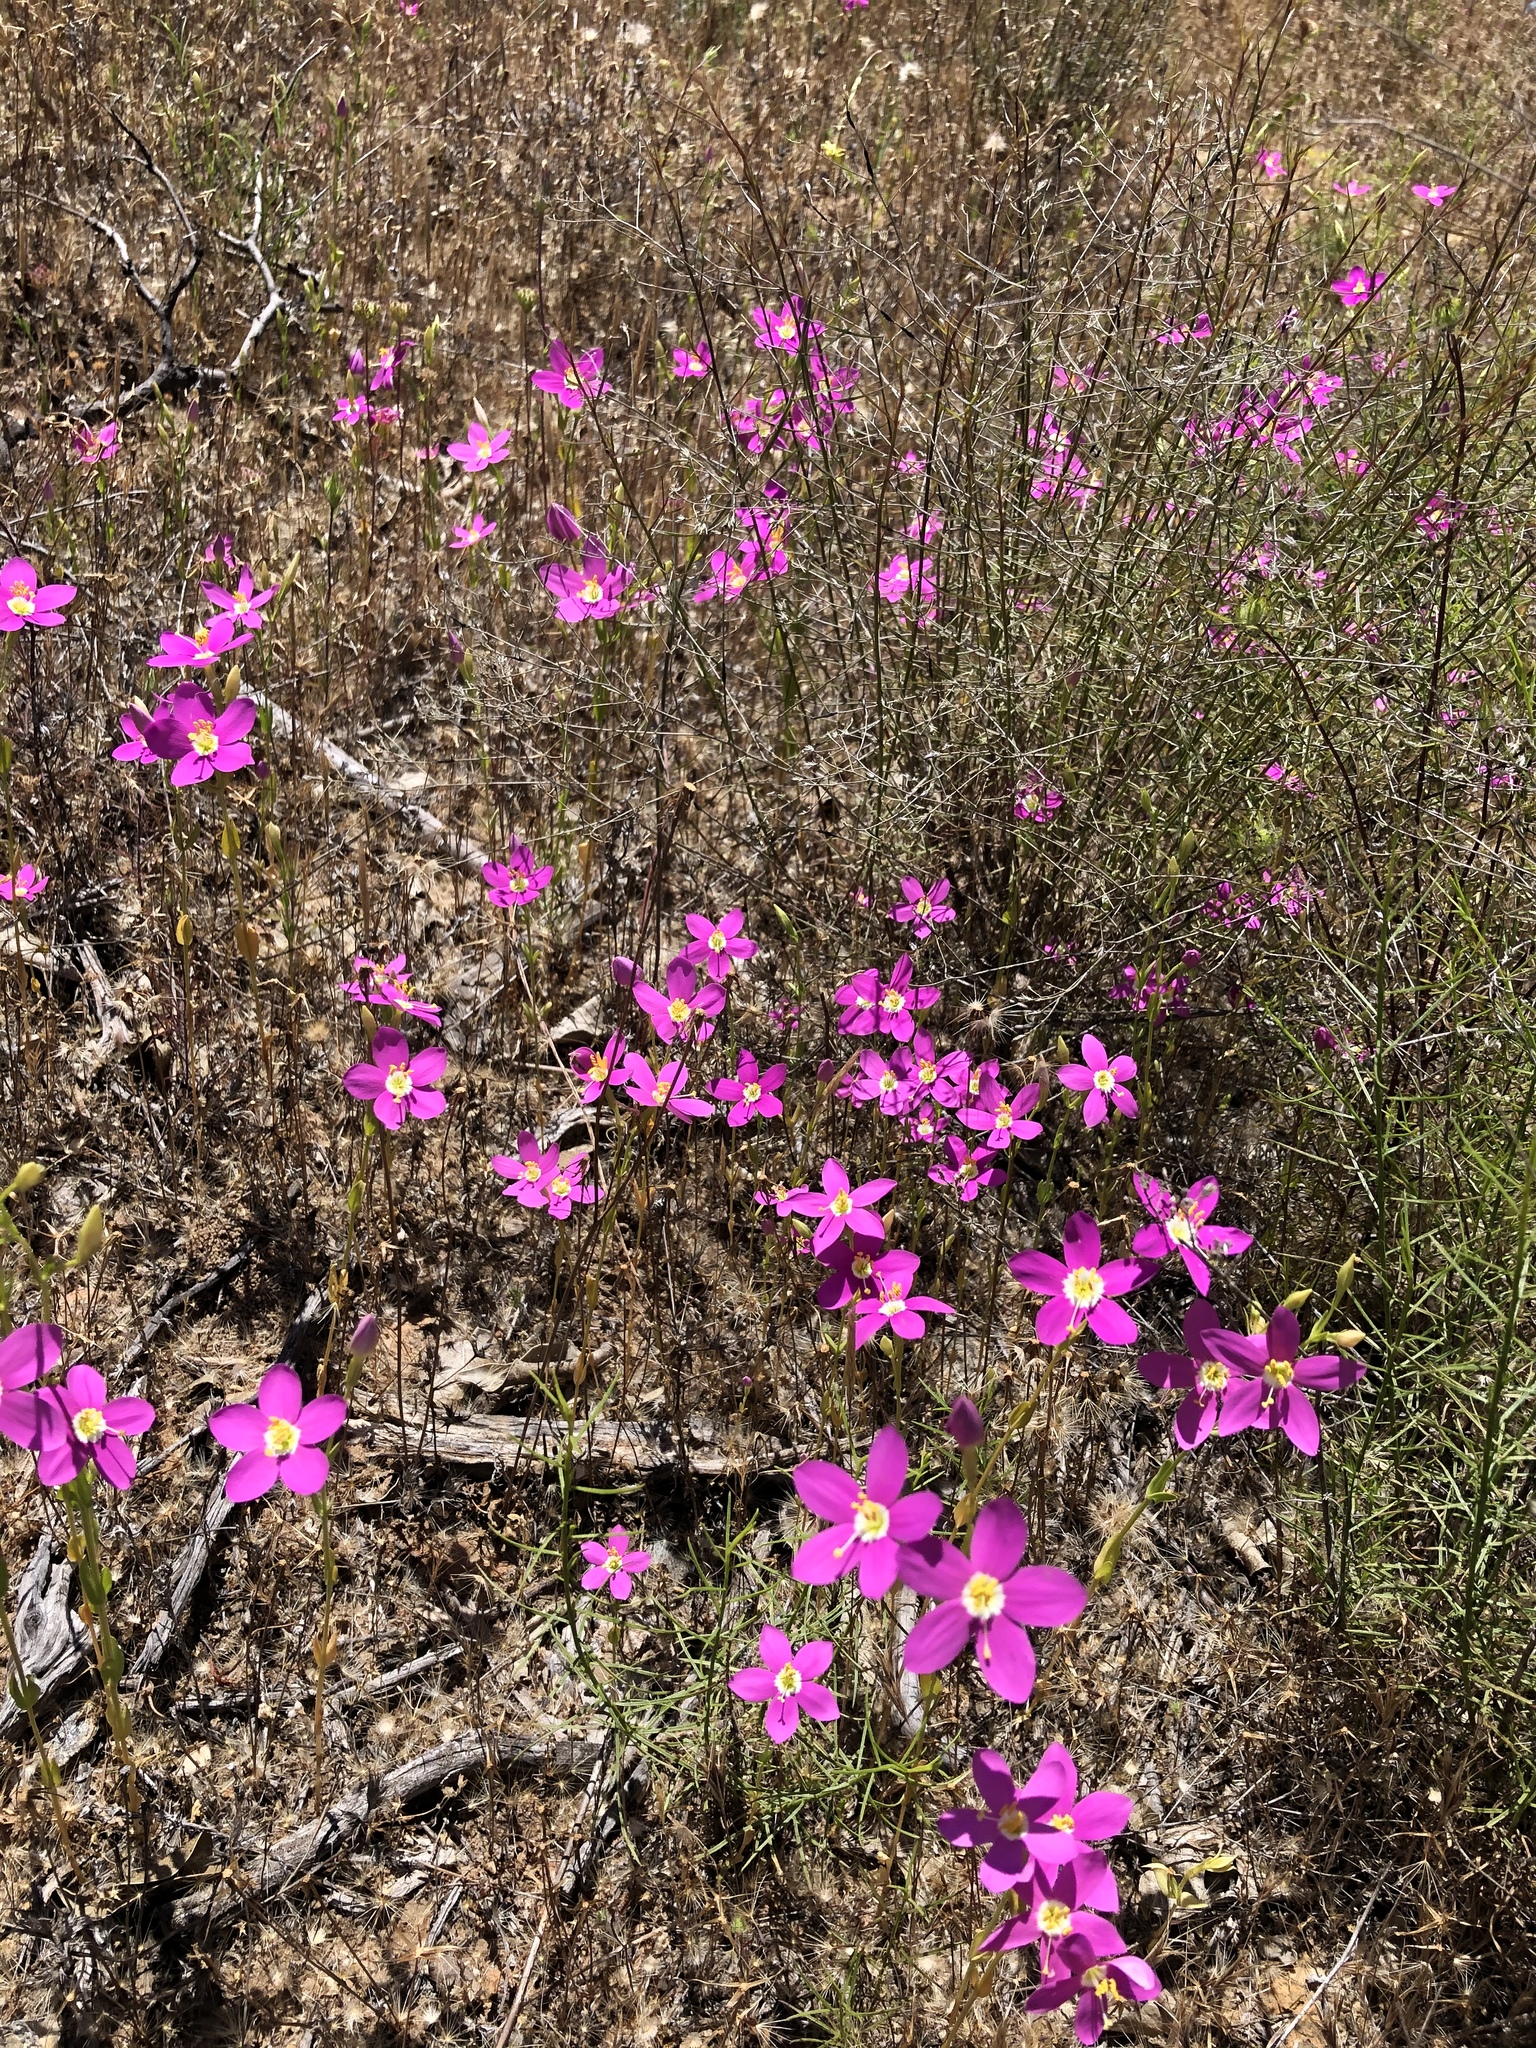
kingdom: Plantae
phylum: Tracheophyta
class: Magnoliopsida
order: Gentianales
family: Gentianaceae
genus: Zeltnera
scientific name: Zeltnera venusta
